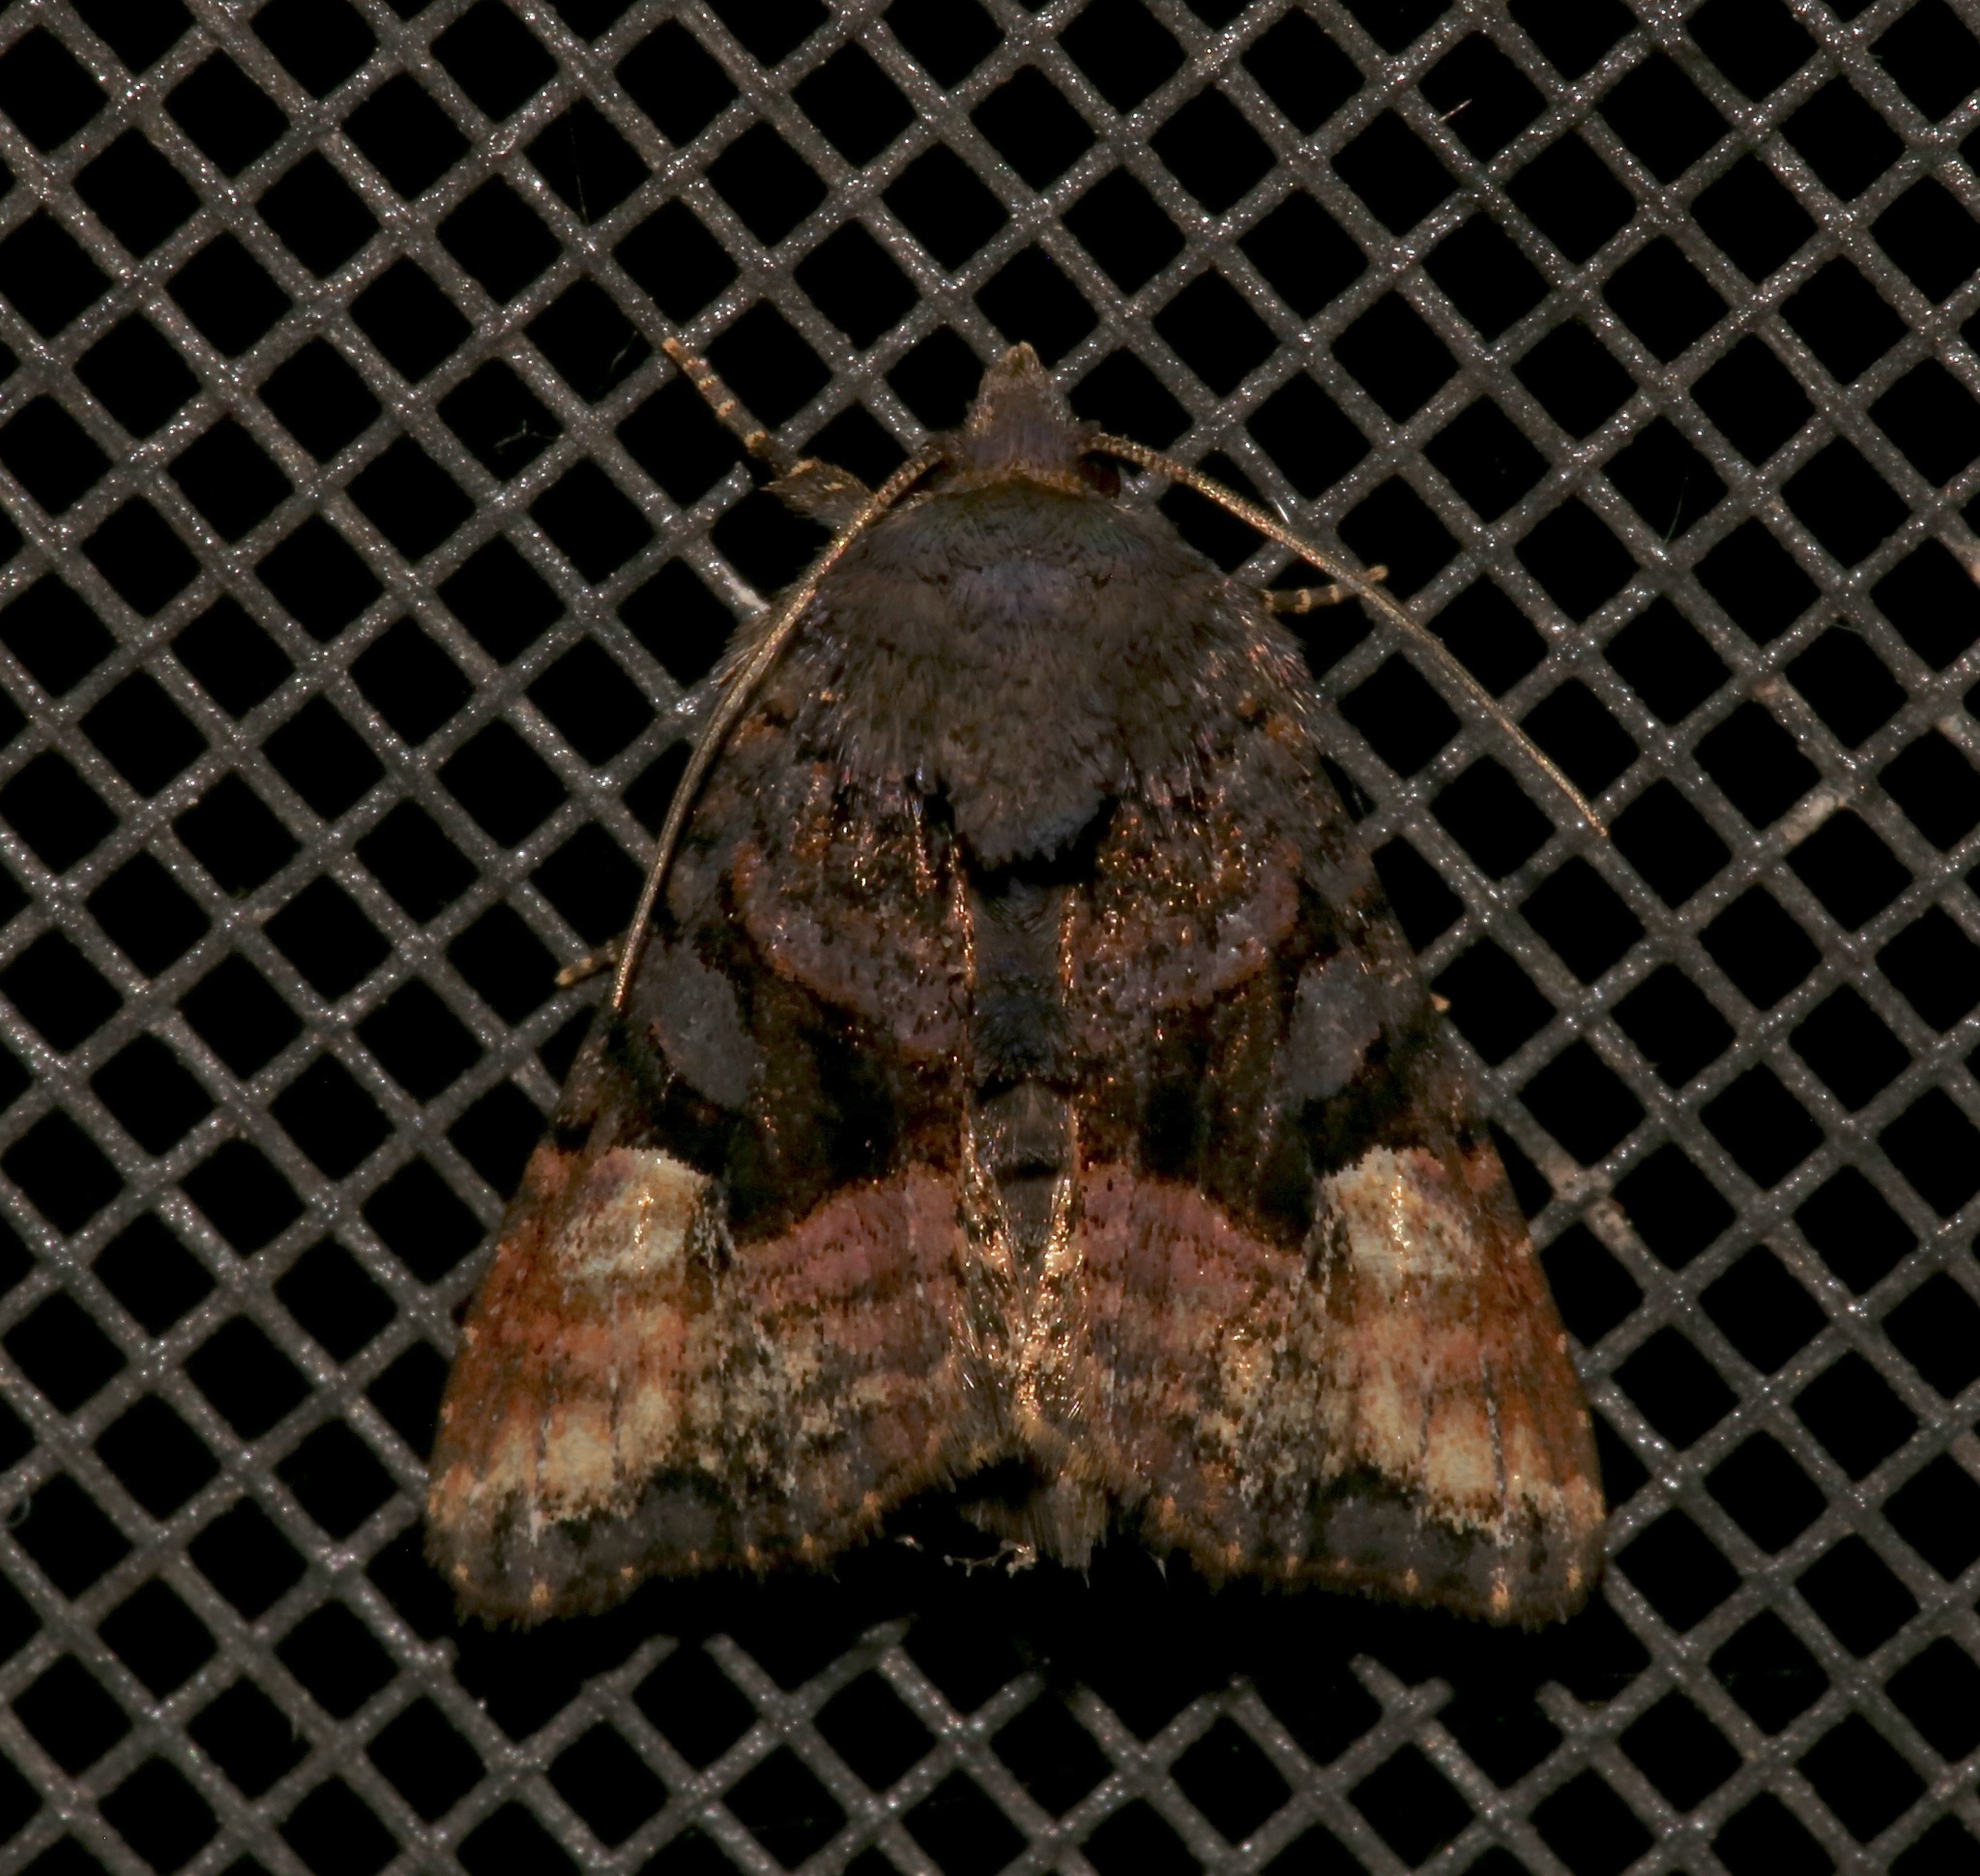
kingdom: Animalia
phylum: Arthropoda
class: Insecta
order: Lepidoptera
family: Noctuidae
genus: Euplexia
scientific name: Euplexia benesimilis
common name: American angle shades
